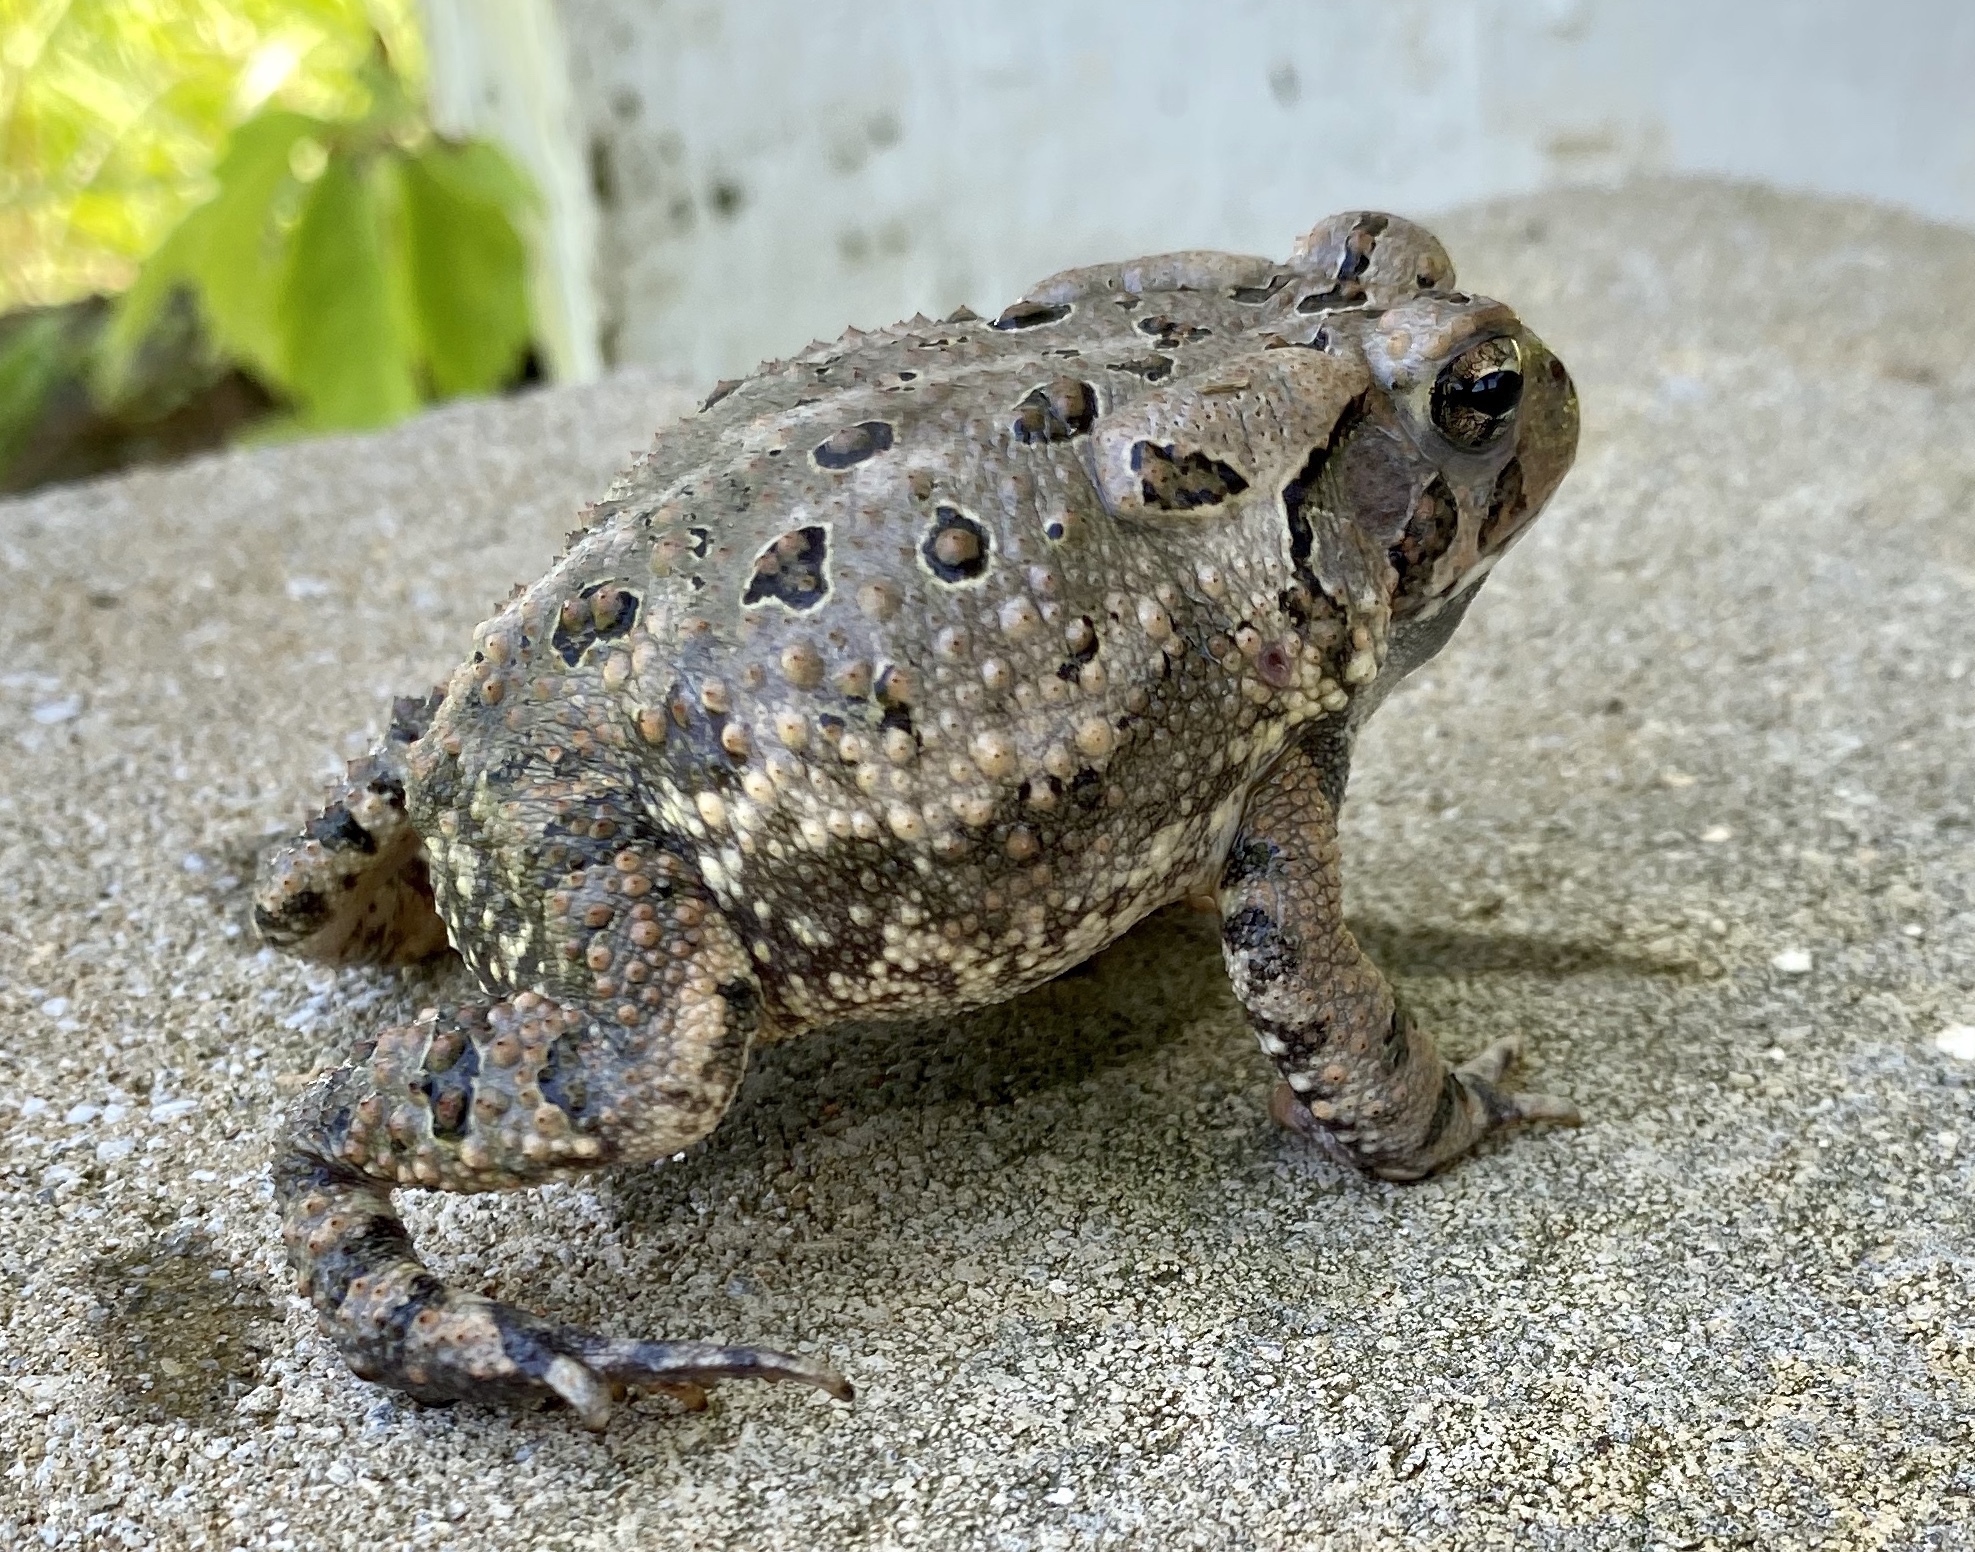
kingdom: Animalia
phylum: Chordata
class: Amphibia
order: Anura
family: Bufonidae
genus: Anaxyrus
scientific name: Anaxyrus fowleri
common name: Fowler's toad
